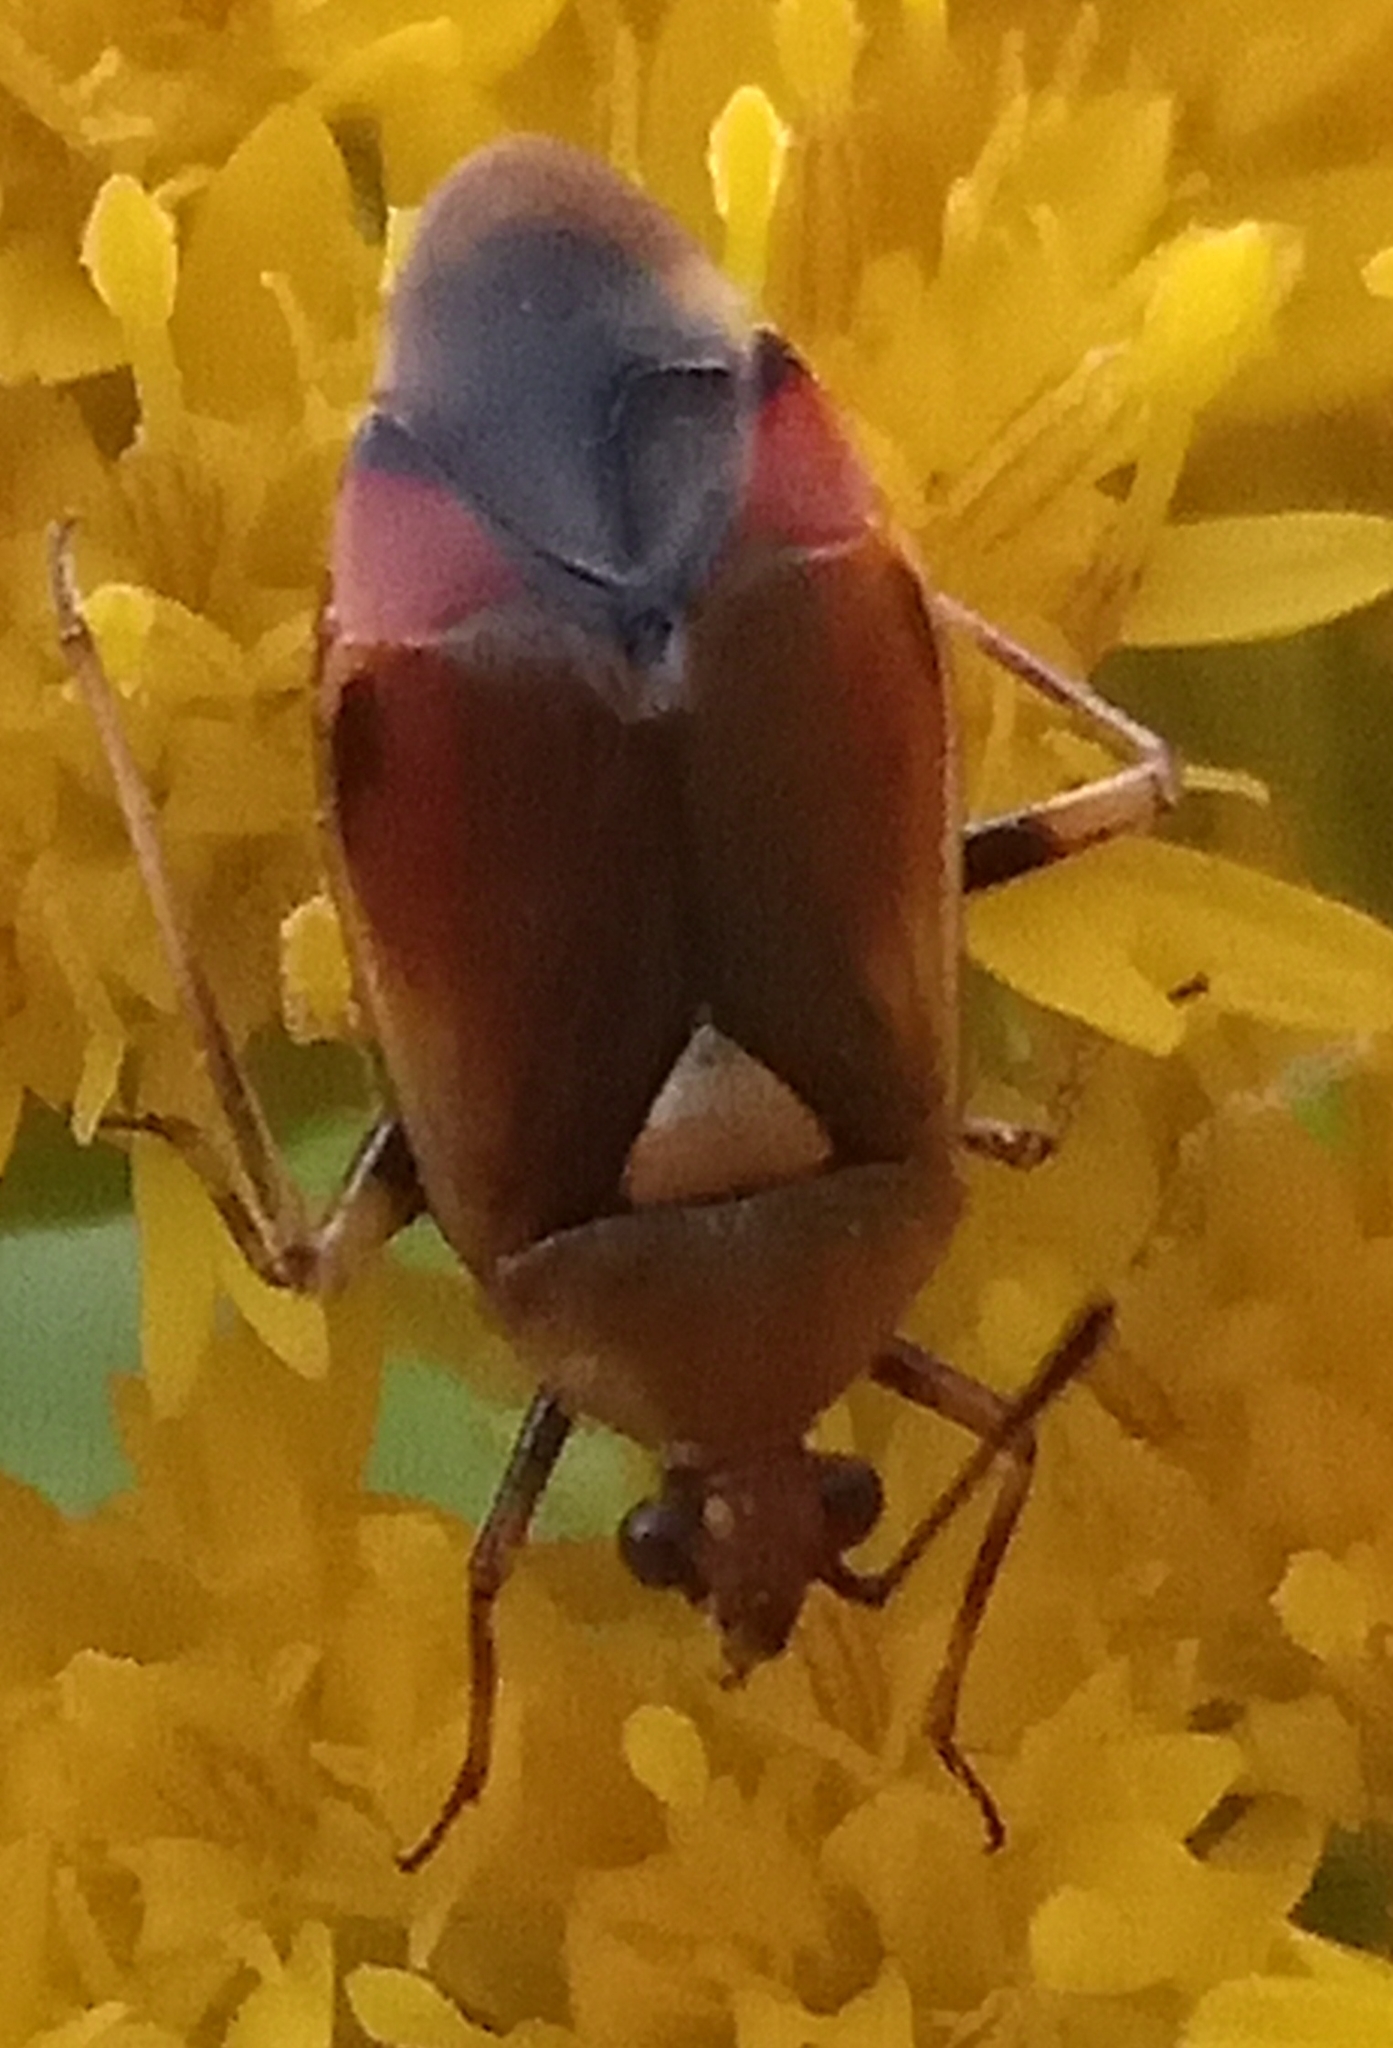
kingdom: Animalia
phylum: Arthropoda
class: Insecta
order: Hemiptera
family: Miridae
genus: Deraeocoris
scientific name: Deraeocoris ruber
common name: Plant bug
